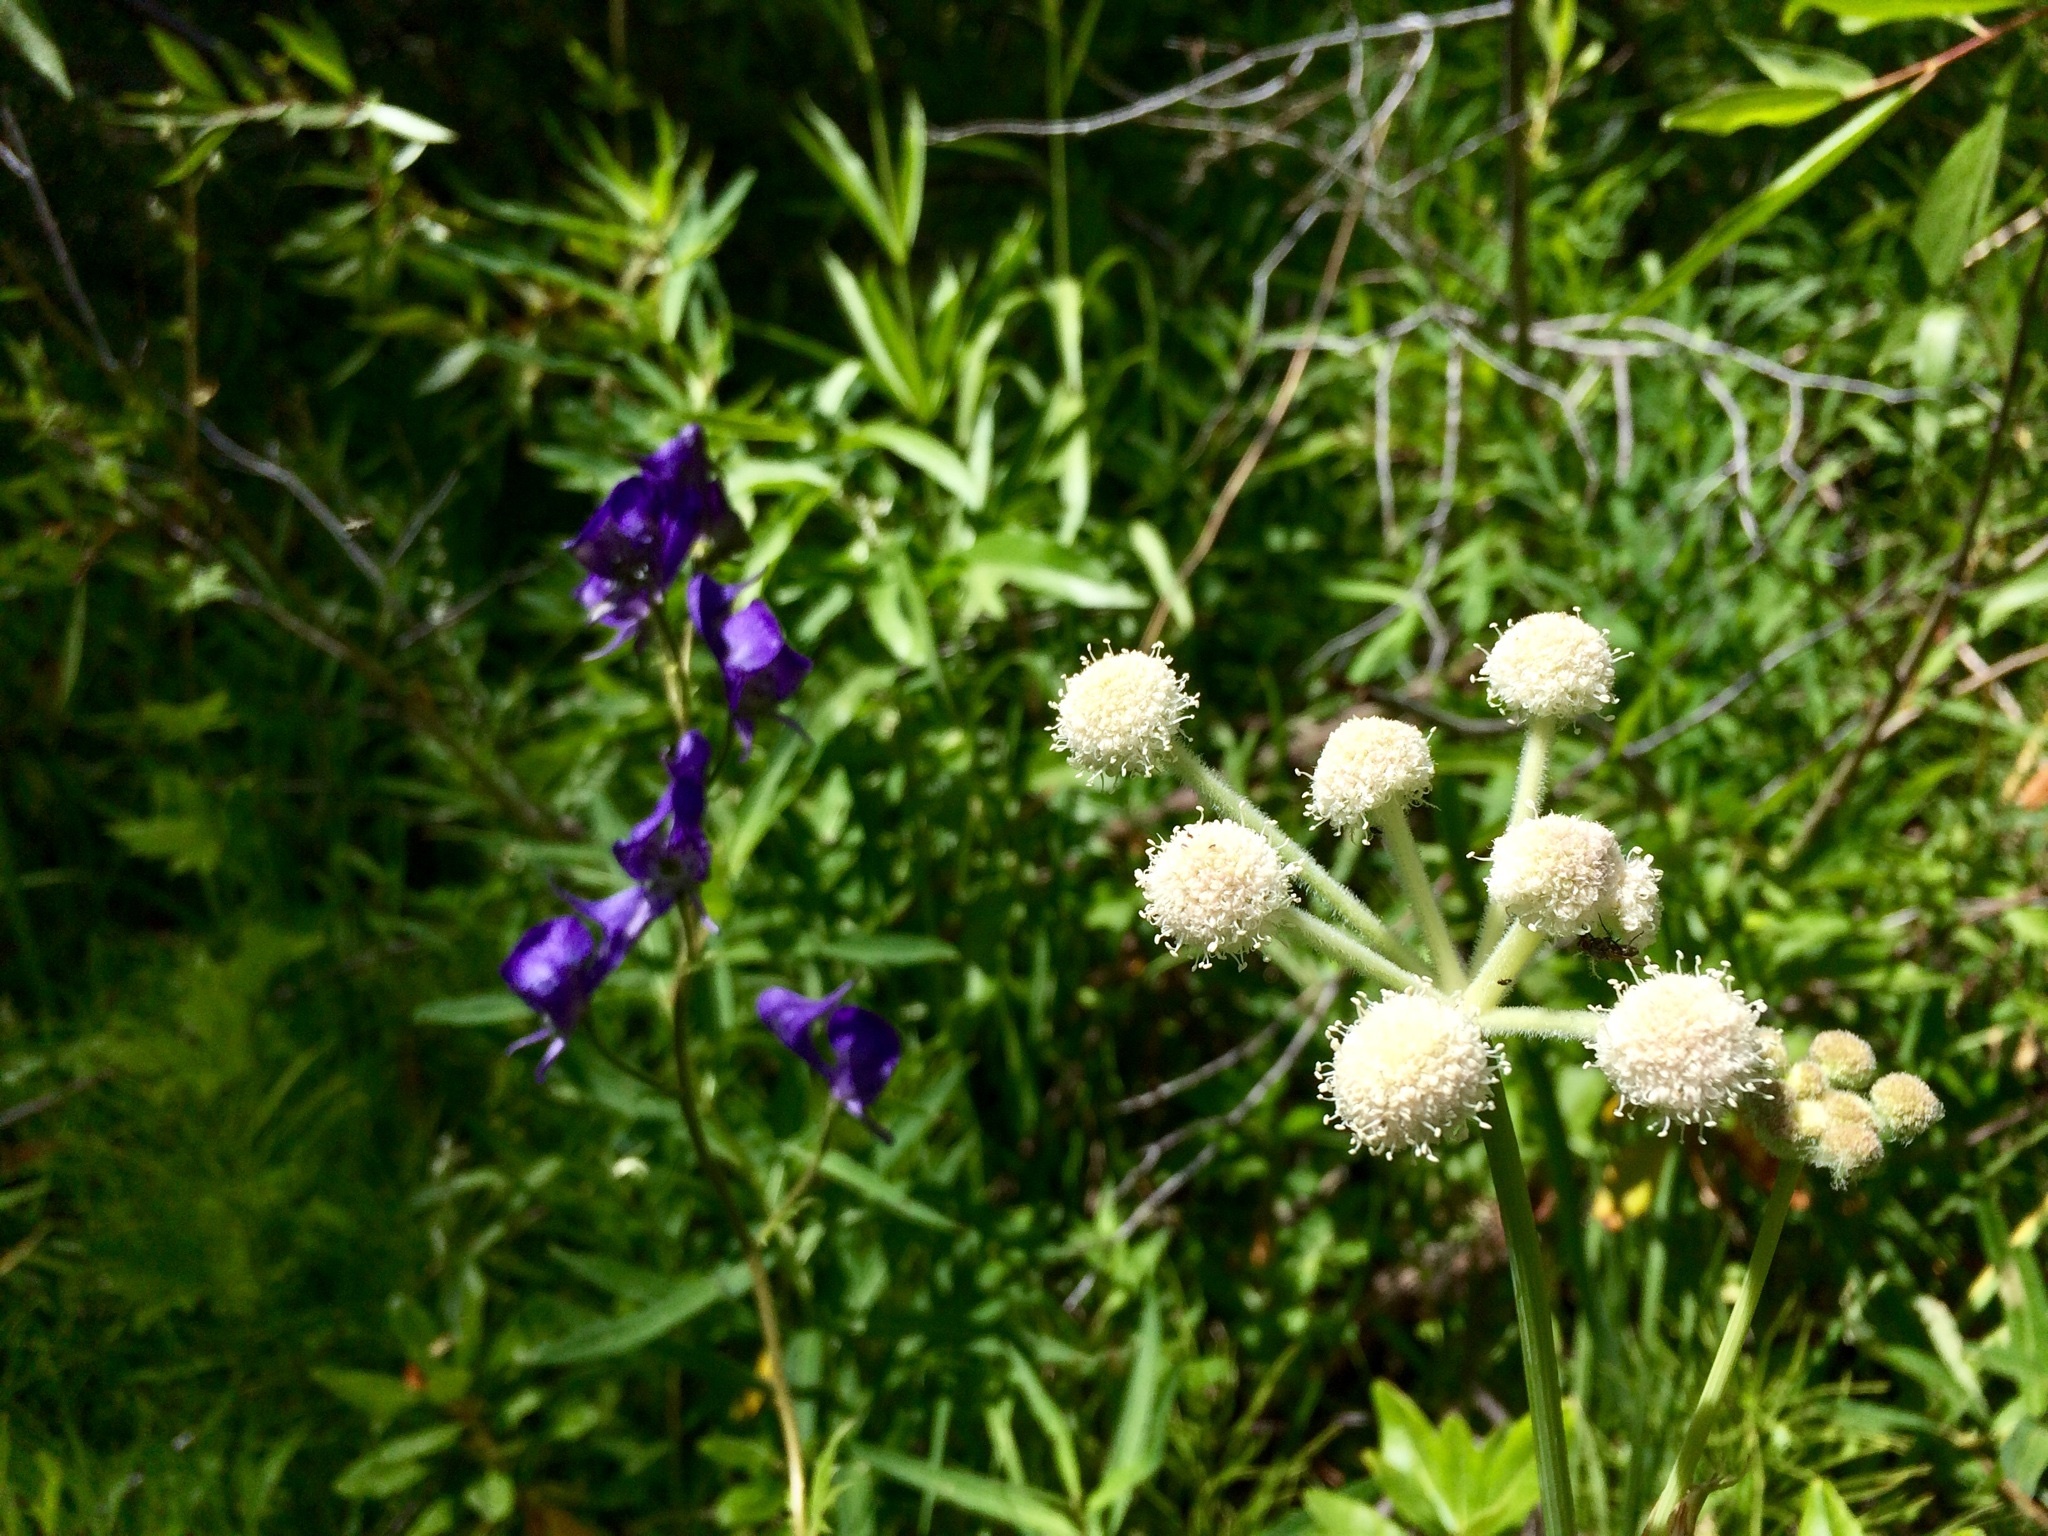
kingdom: Plantae
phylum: Tracheophyta
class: Magnoliopsida
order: Apiales
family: Apiaceae
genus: Angelica
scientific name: Angelica capitellata
